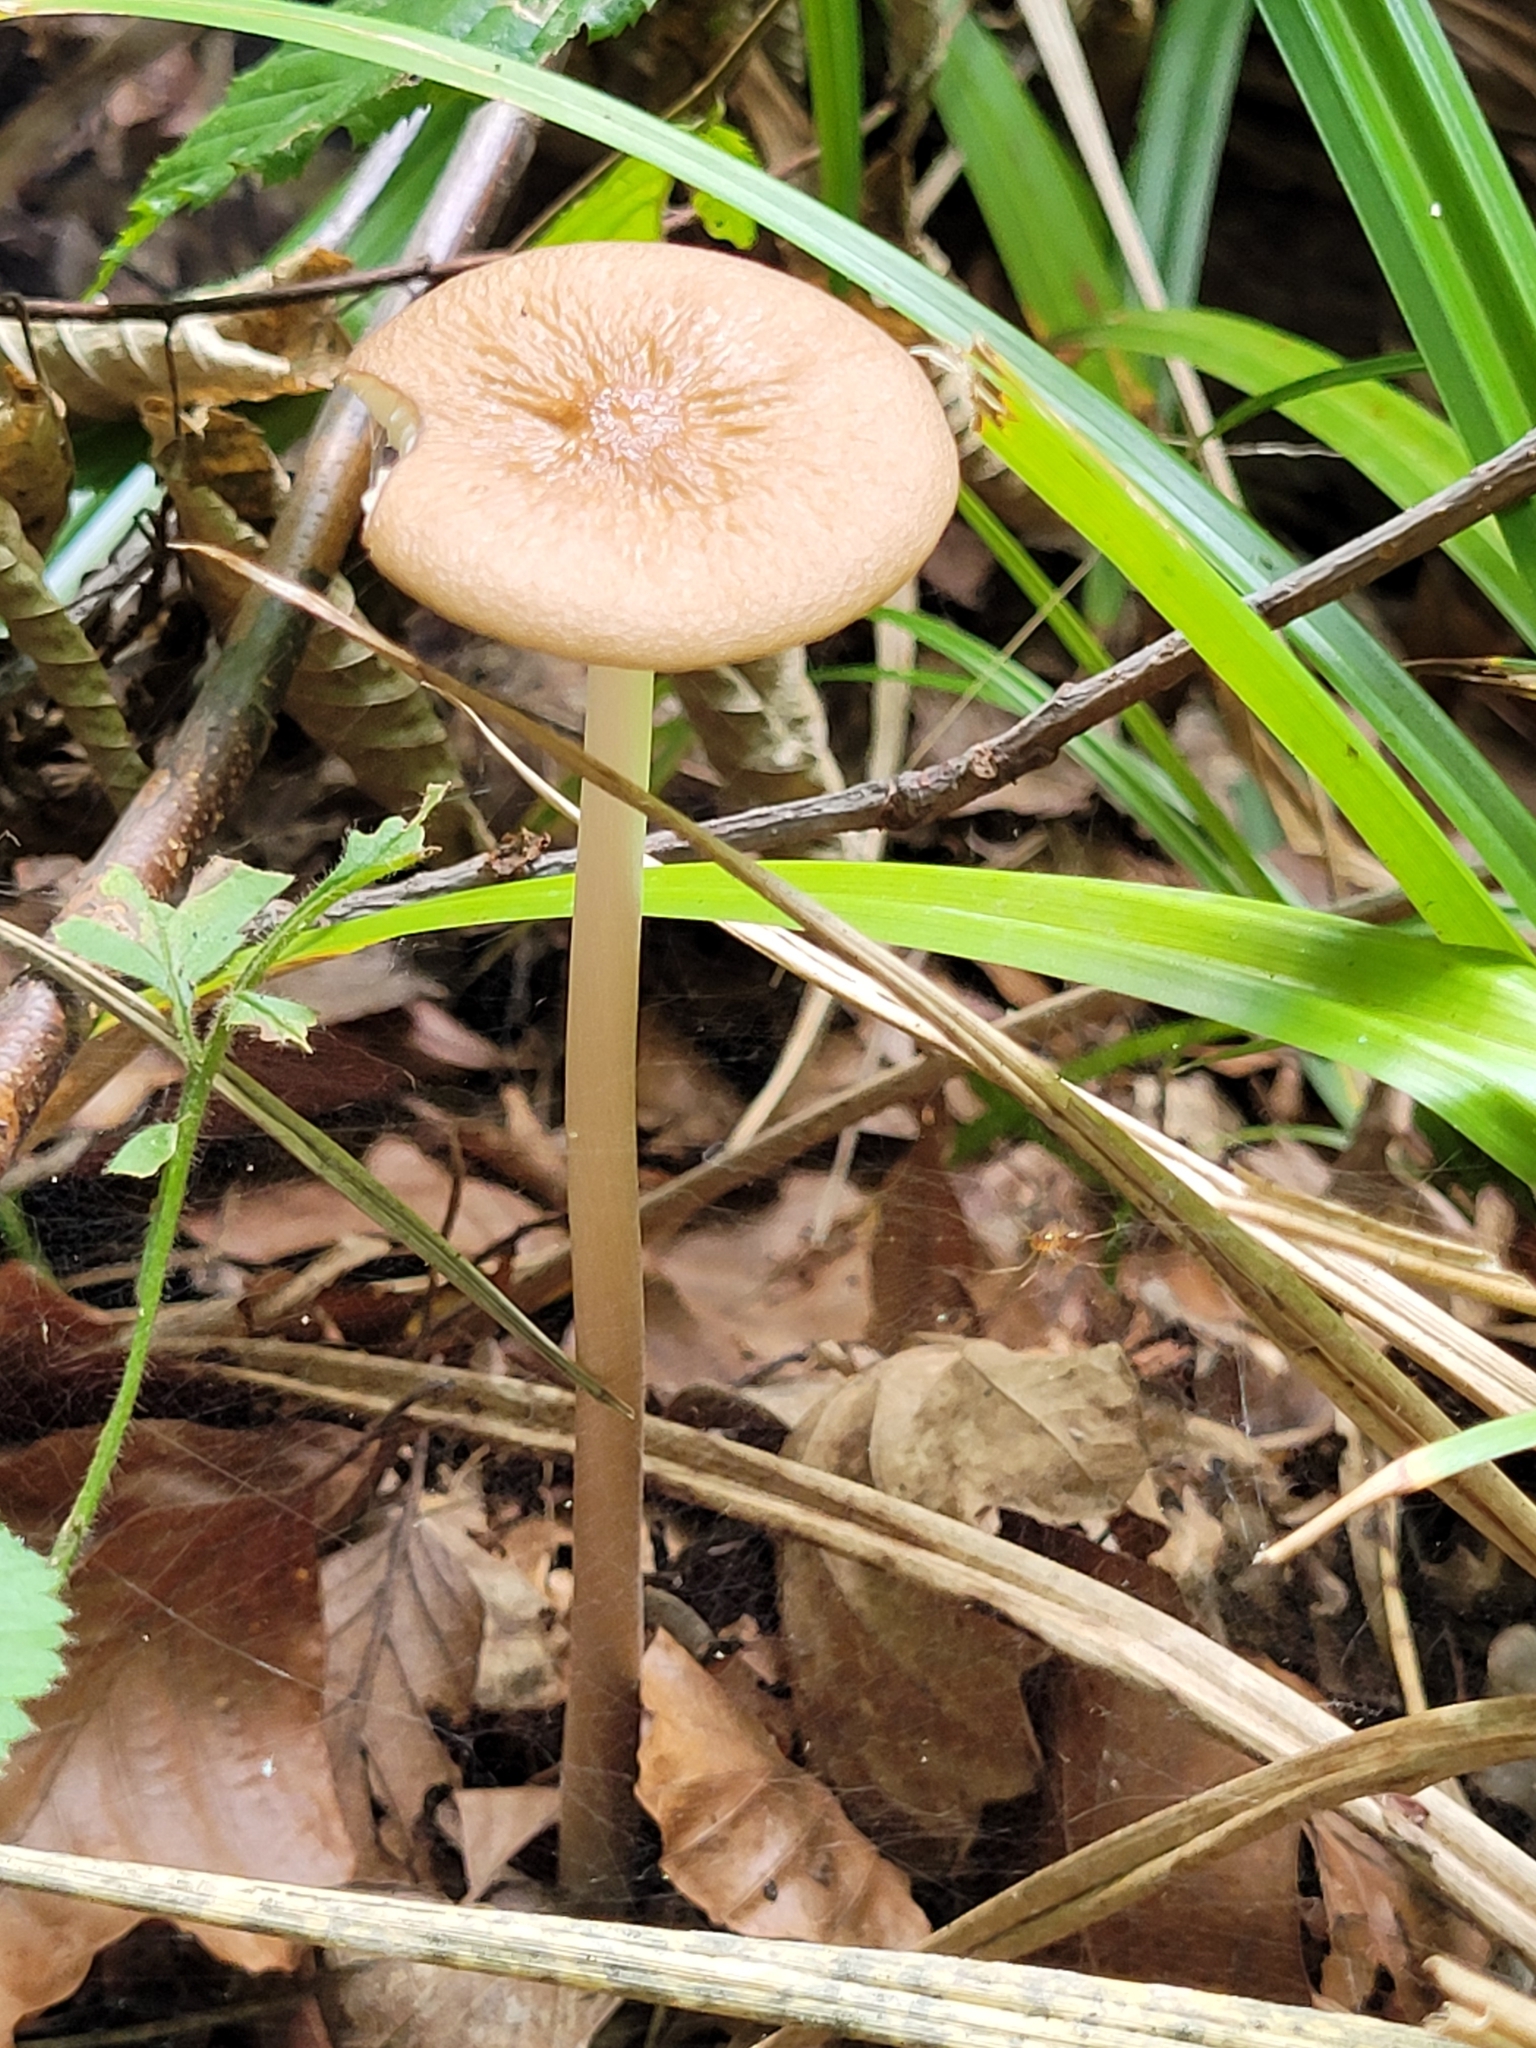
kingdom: Fungi
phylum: Basidiomycota
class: Agaricomycetes
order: Agaricales
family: Physalacriaceae
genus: Hymenopellis
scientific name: Hymenopellis radicata
